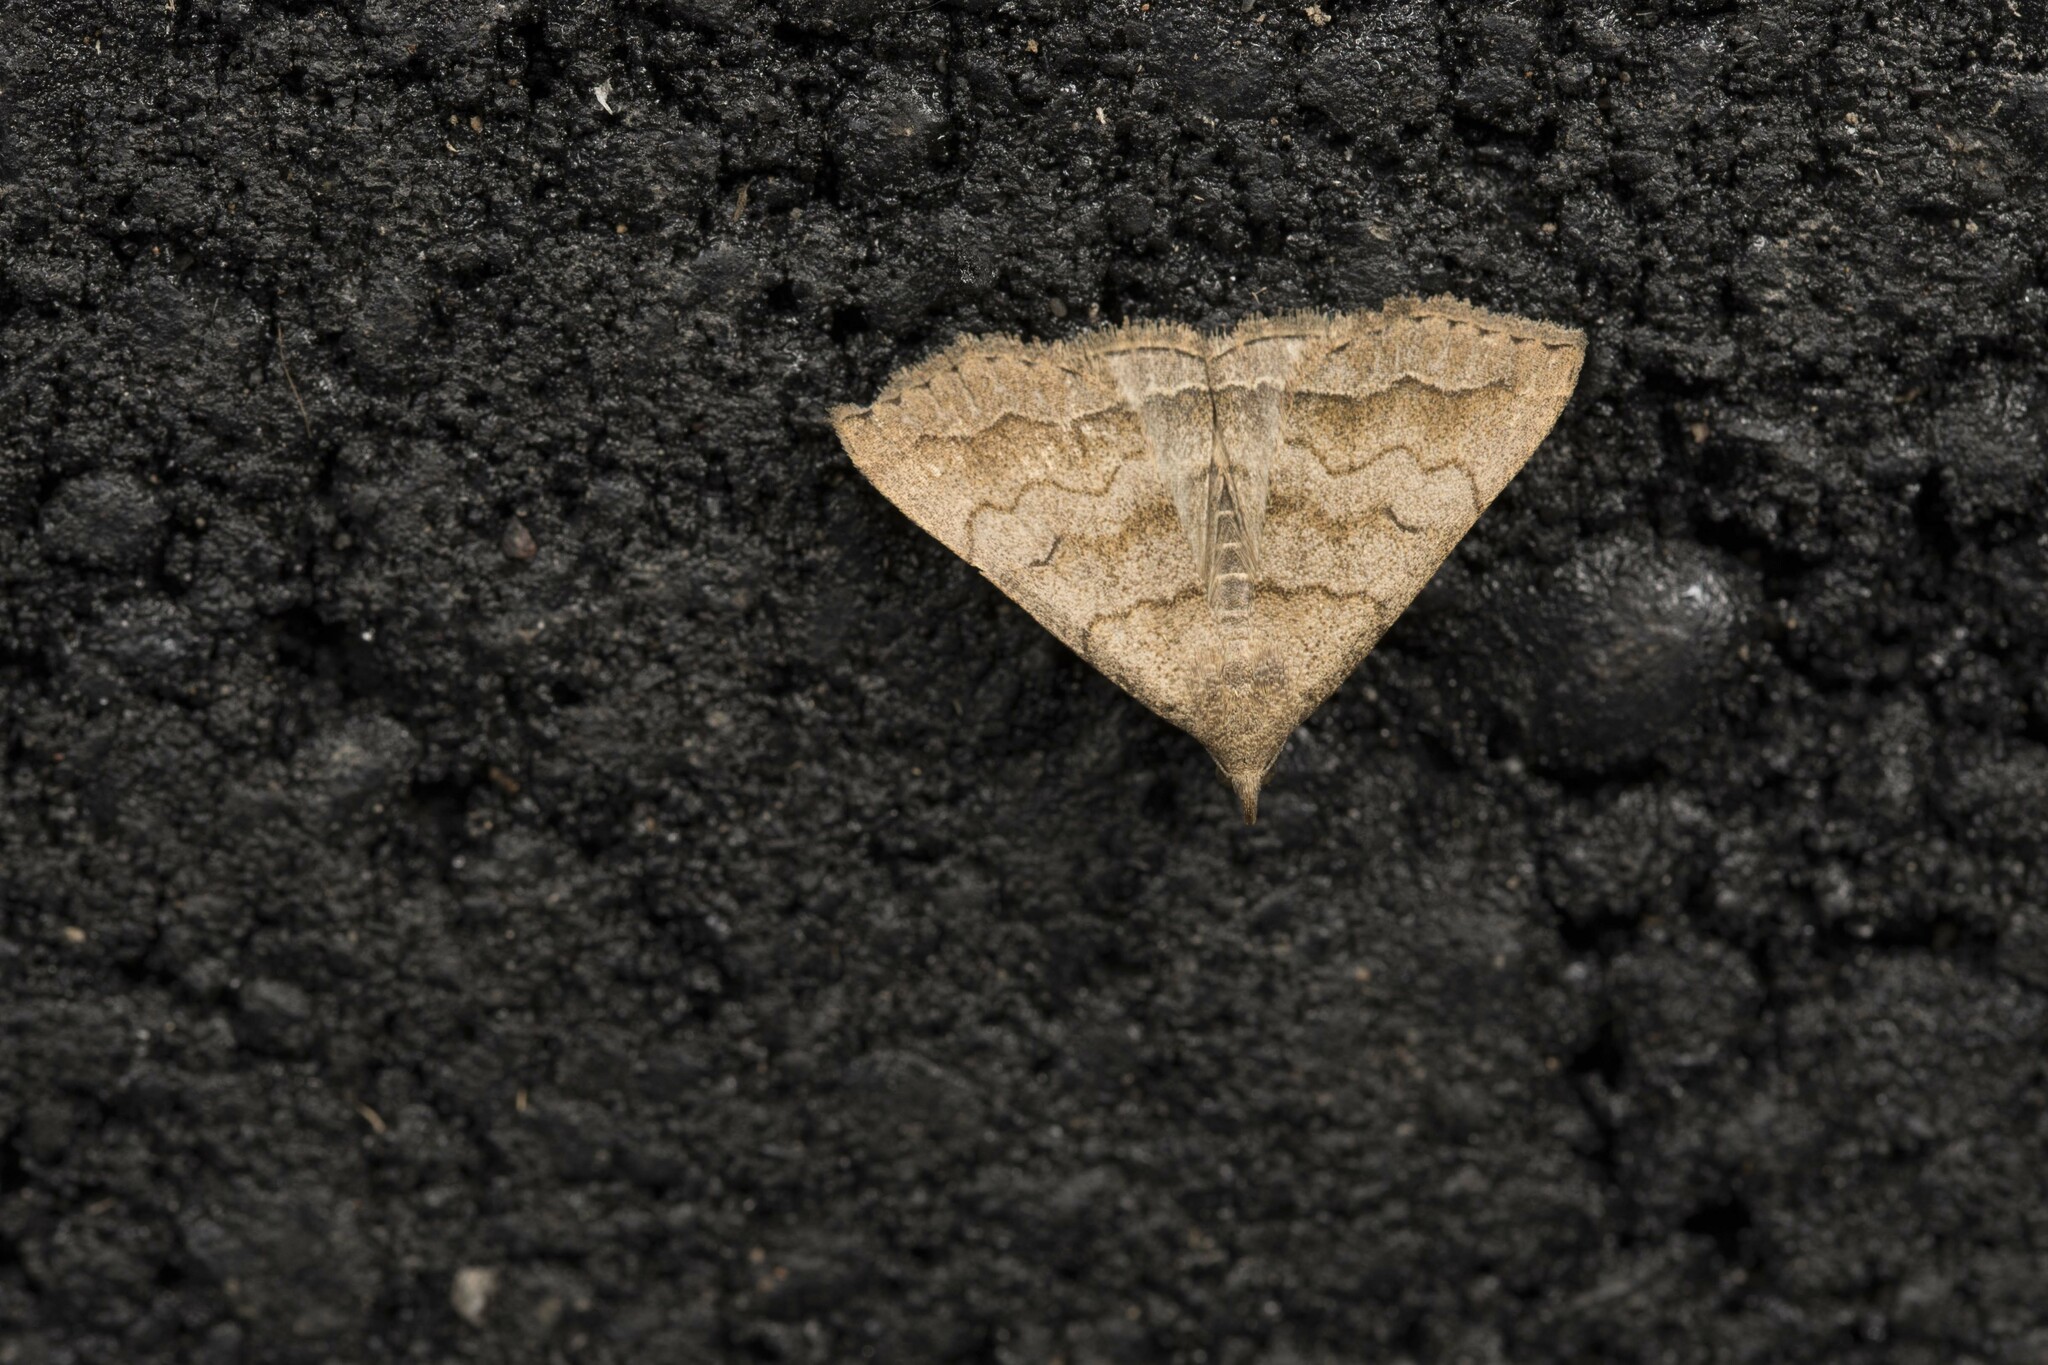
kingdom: Animalia
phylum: Arthropoda
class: Insecta
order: Lepidoptera
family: Erebidae
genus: Herminia
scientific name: Herminia undulata
